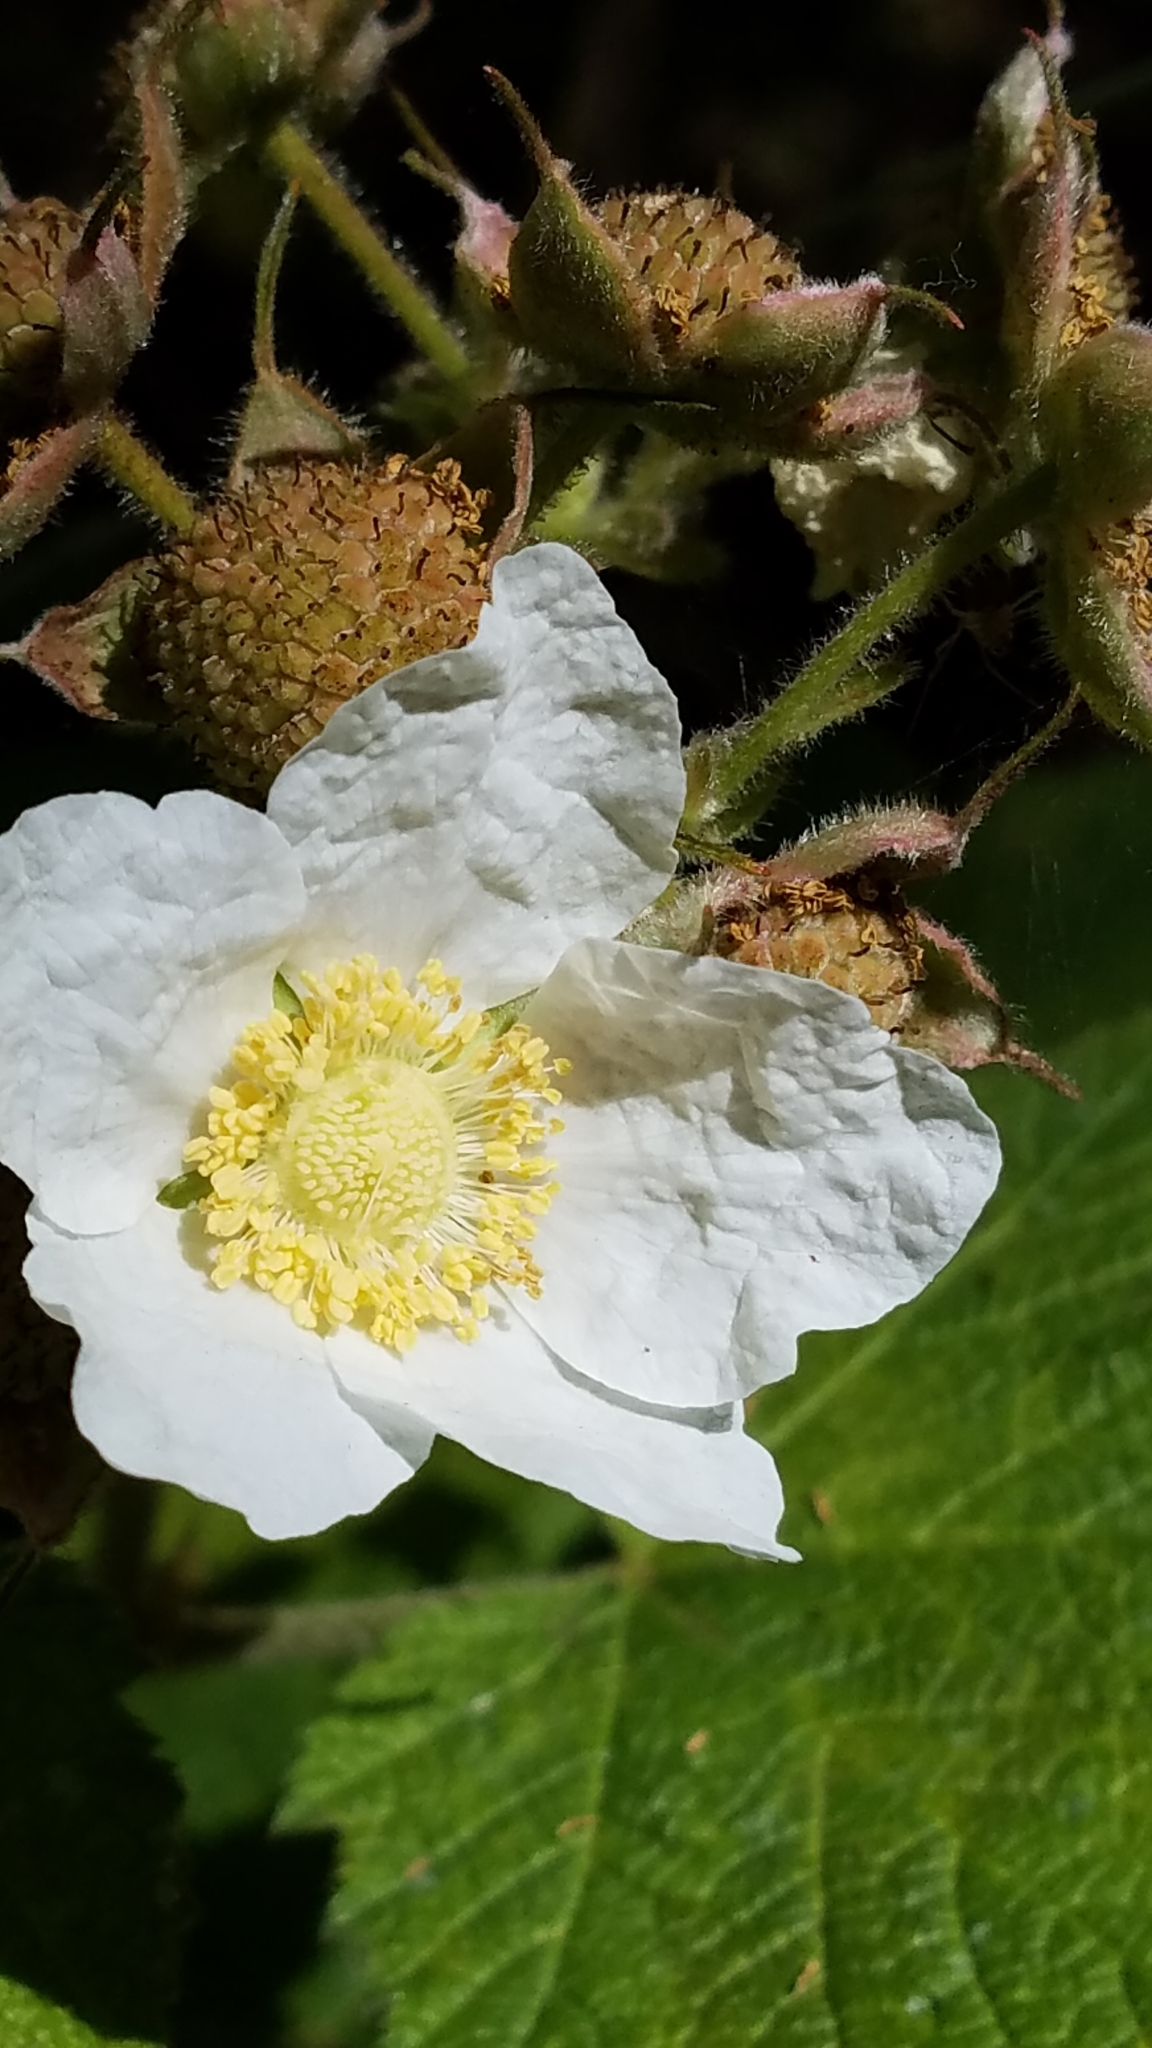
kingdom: Plantae
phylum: Tracheophyta
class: Magnoliopsida
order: Rosales
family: Rosaceae
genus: Rubus
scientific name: Rubus parviflorus
